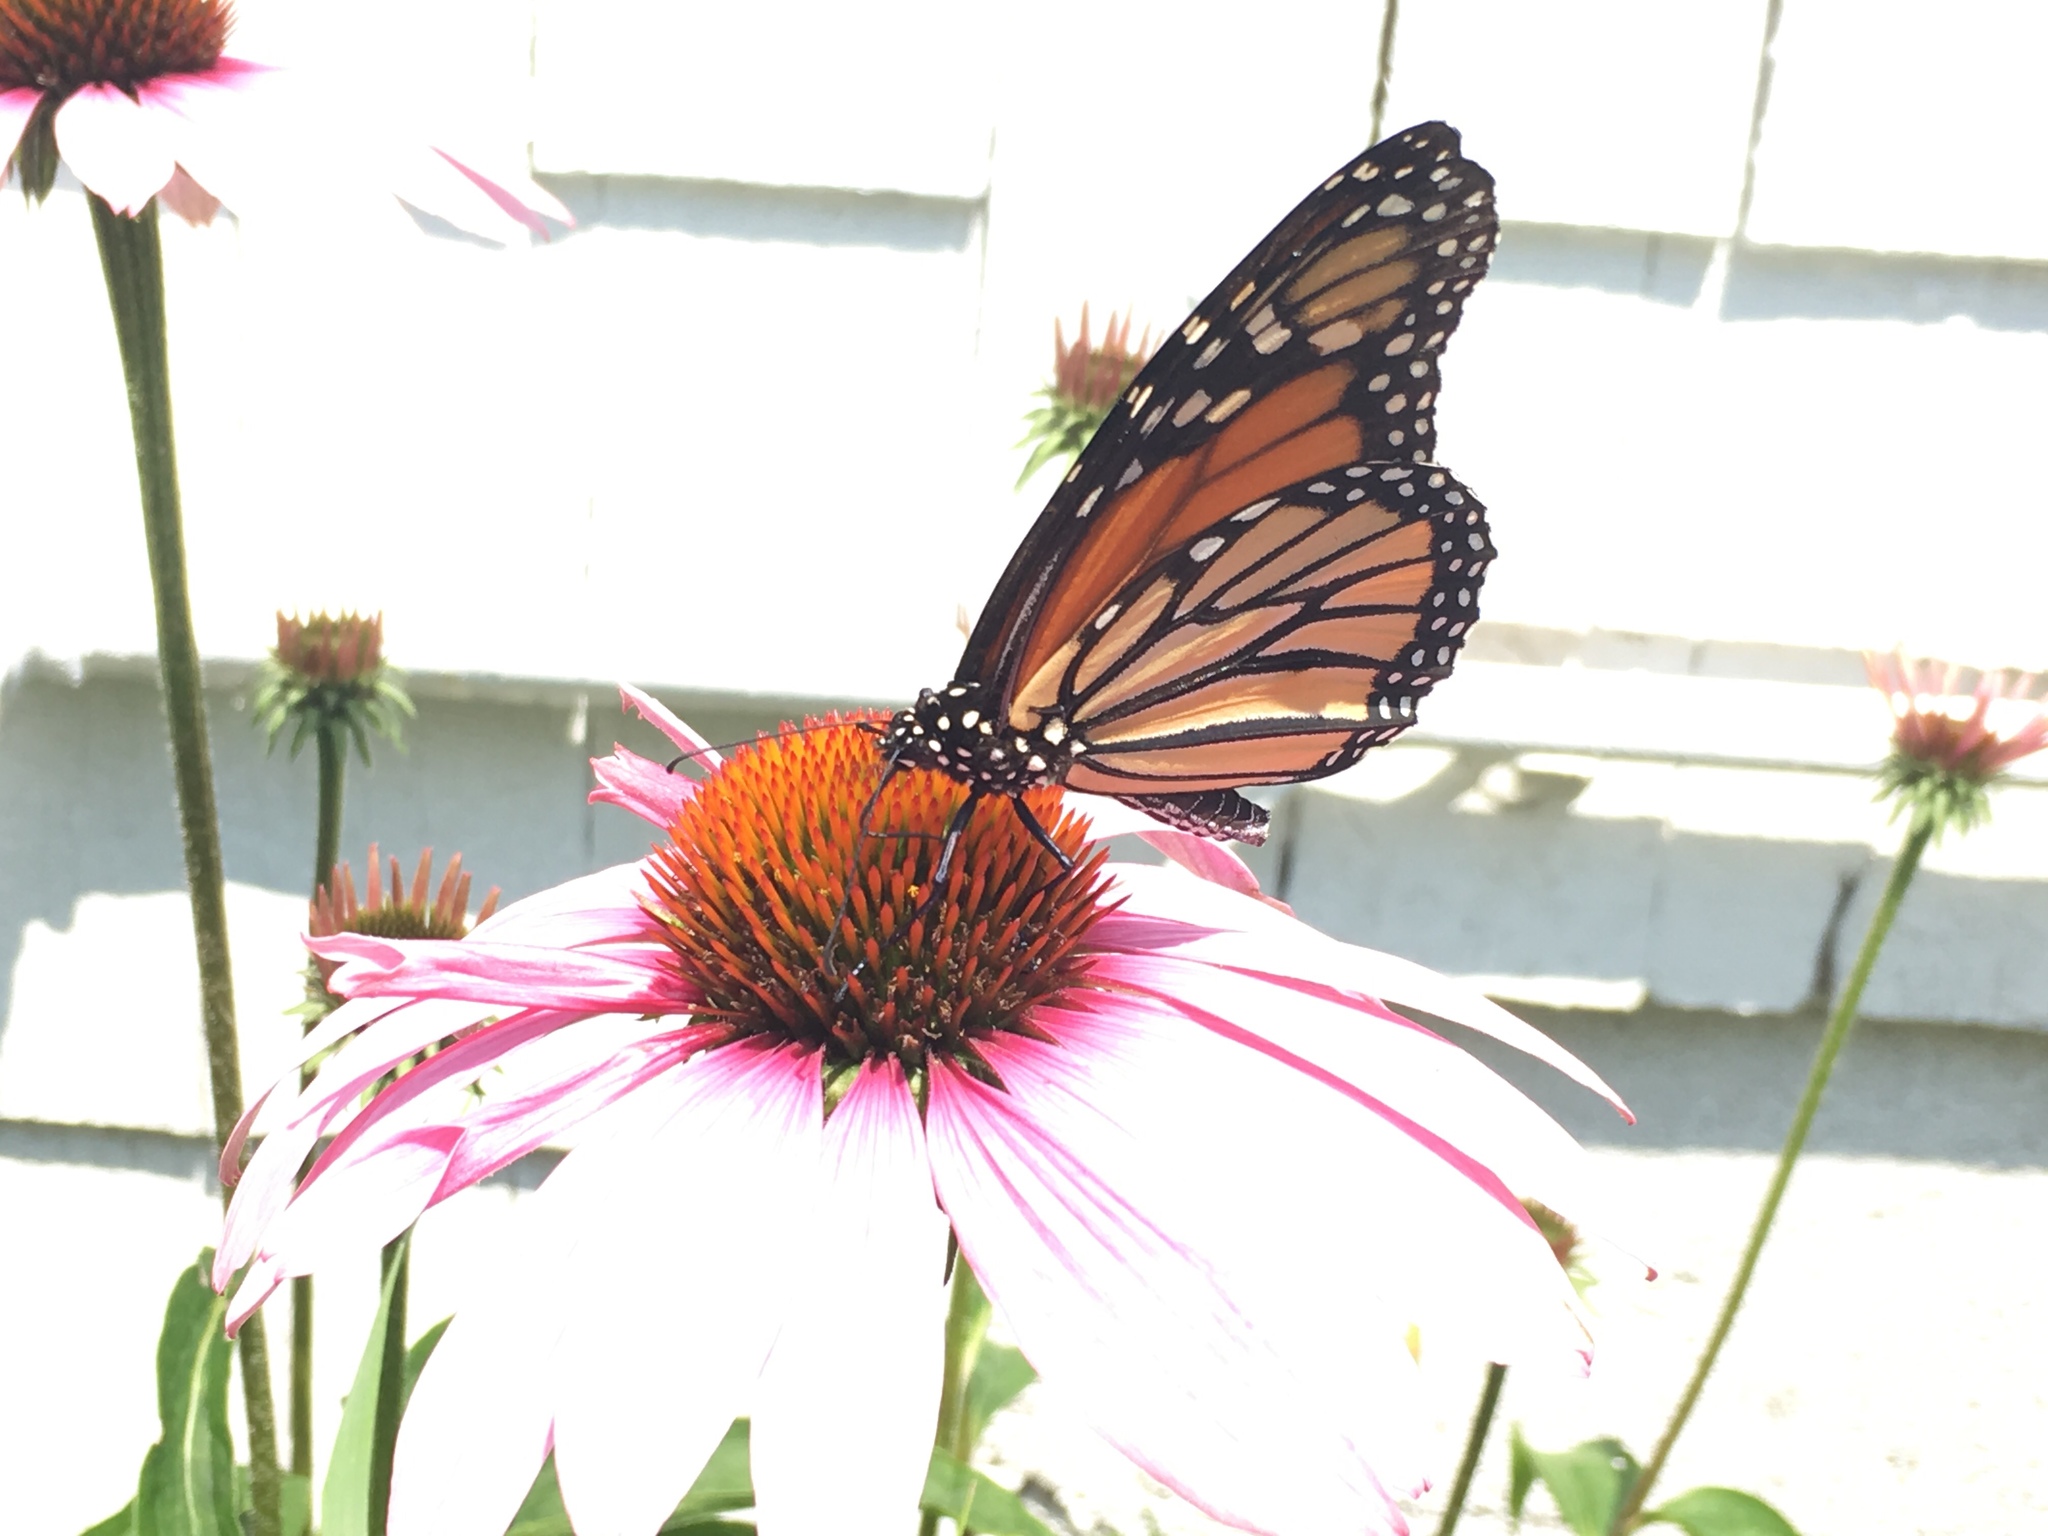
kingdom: Animalia
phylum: Arthropoda
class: Insecta
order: Lepidoptera
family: Nymphalidae
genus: Danaus
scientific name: Danaus plexippus
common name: Monarch
